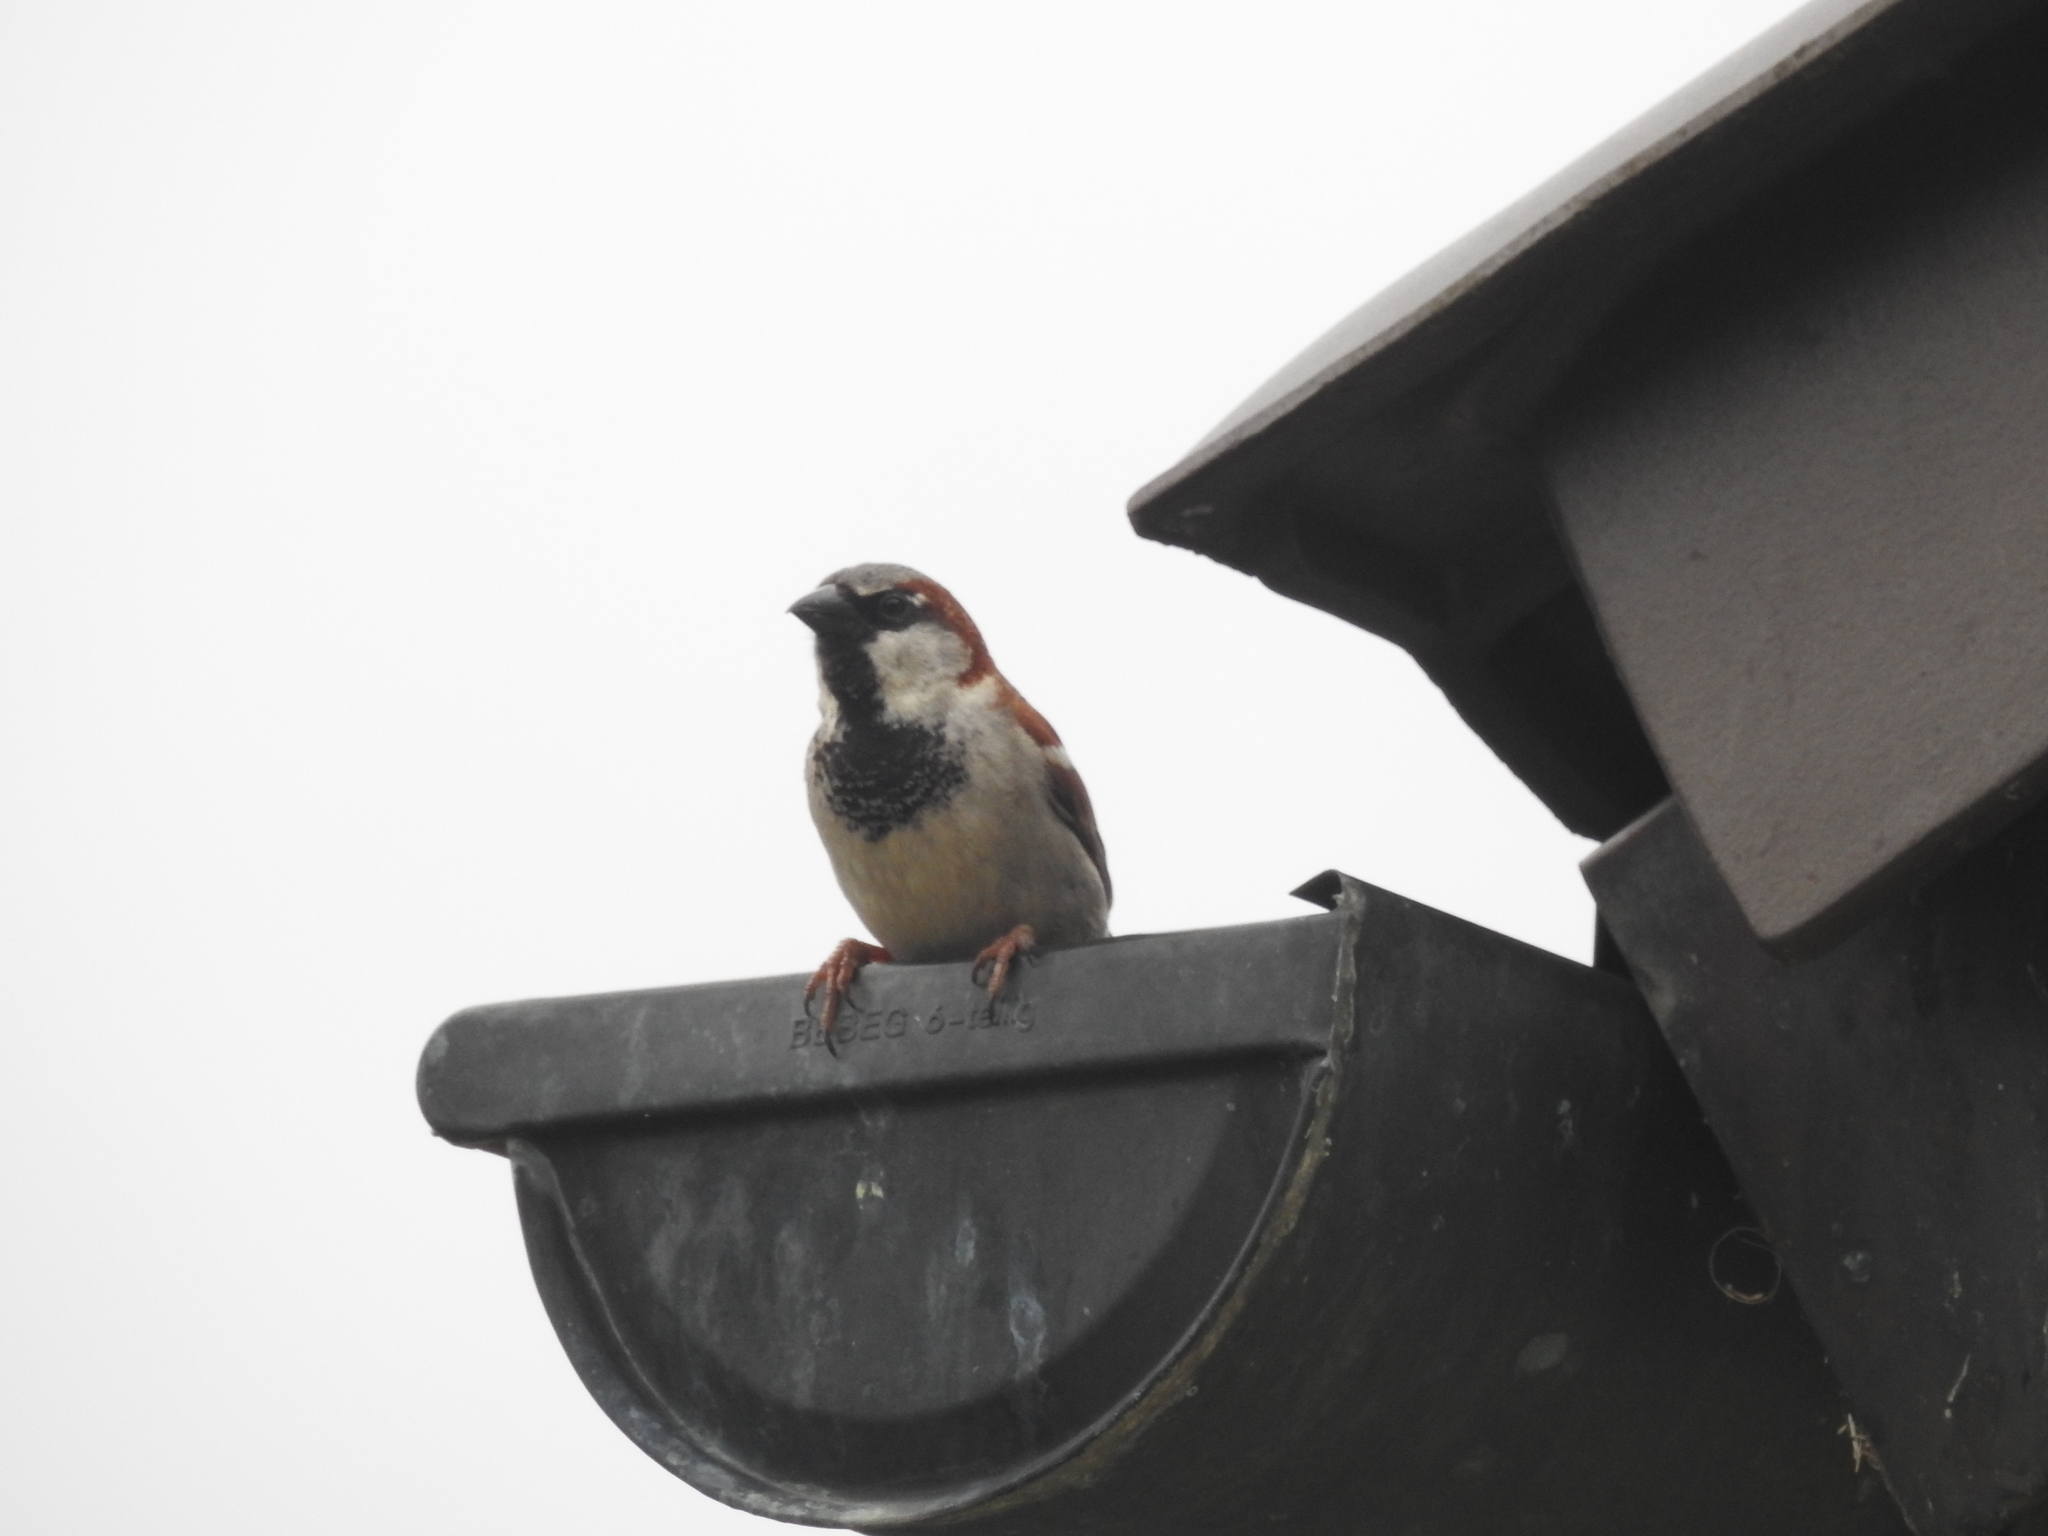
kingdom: Animalia
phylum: Chordata
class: Aves
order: Passeriformes
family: Passeridae
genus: Passer
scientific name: Passer domesticus
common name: House sparrow
